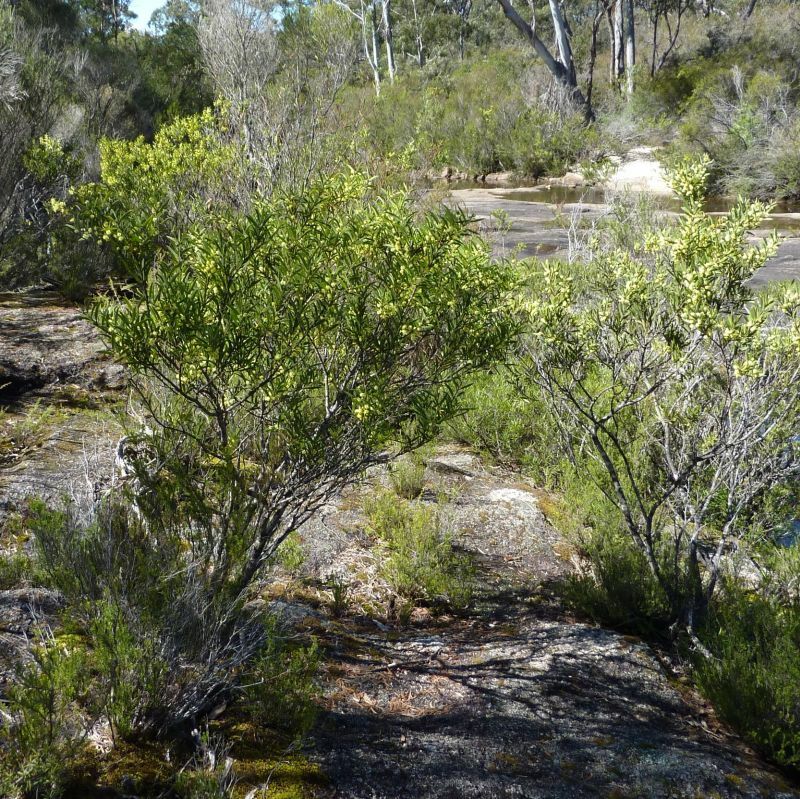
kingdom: Plantae
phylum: Tracheophyta
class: Magnoliopsida
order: Fabales
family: Fabaceae
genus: Acacia
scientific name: Acacia lanigera
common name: Hairy wattle
